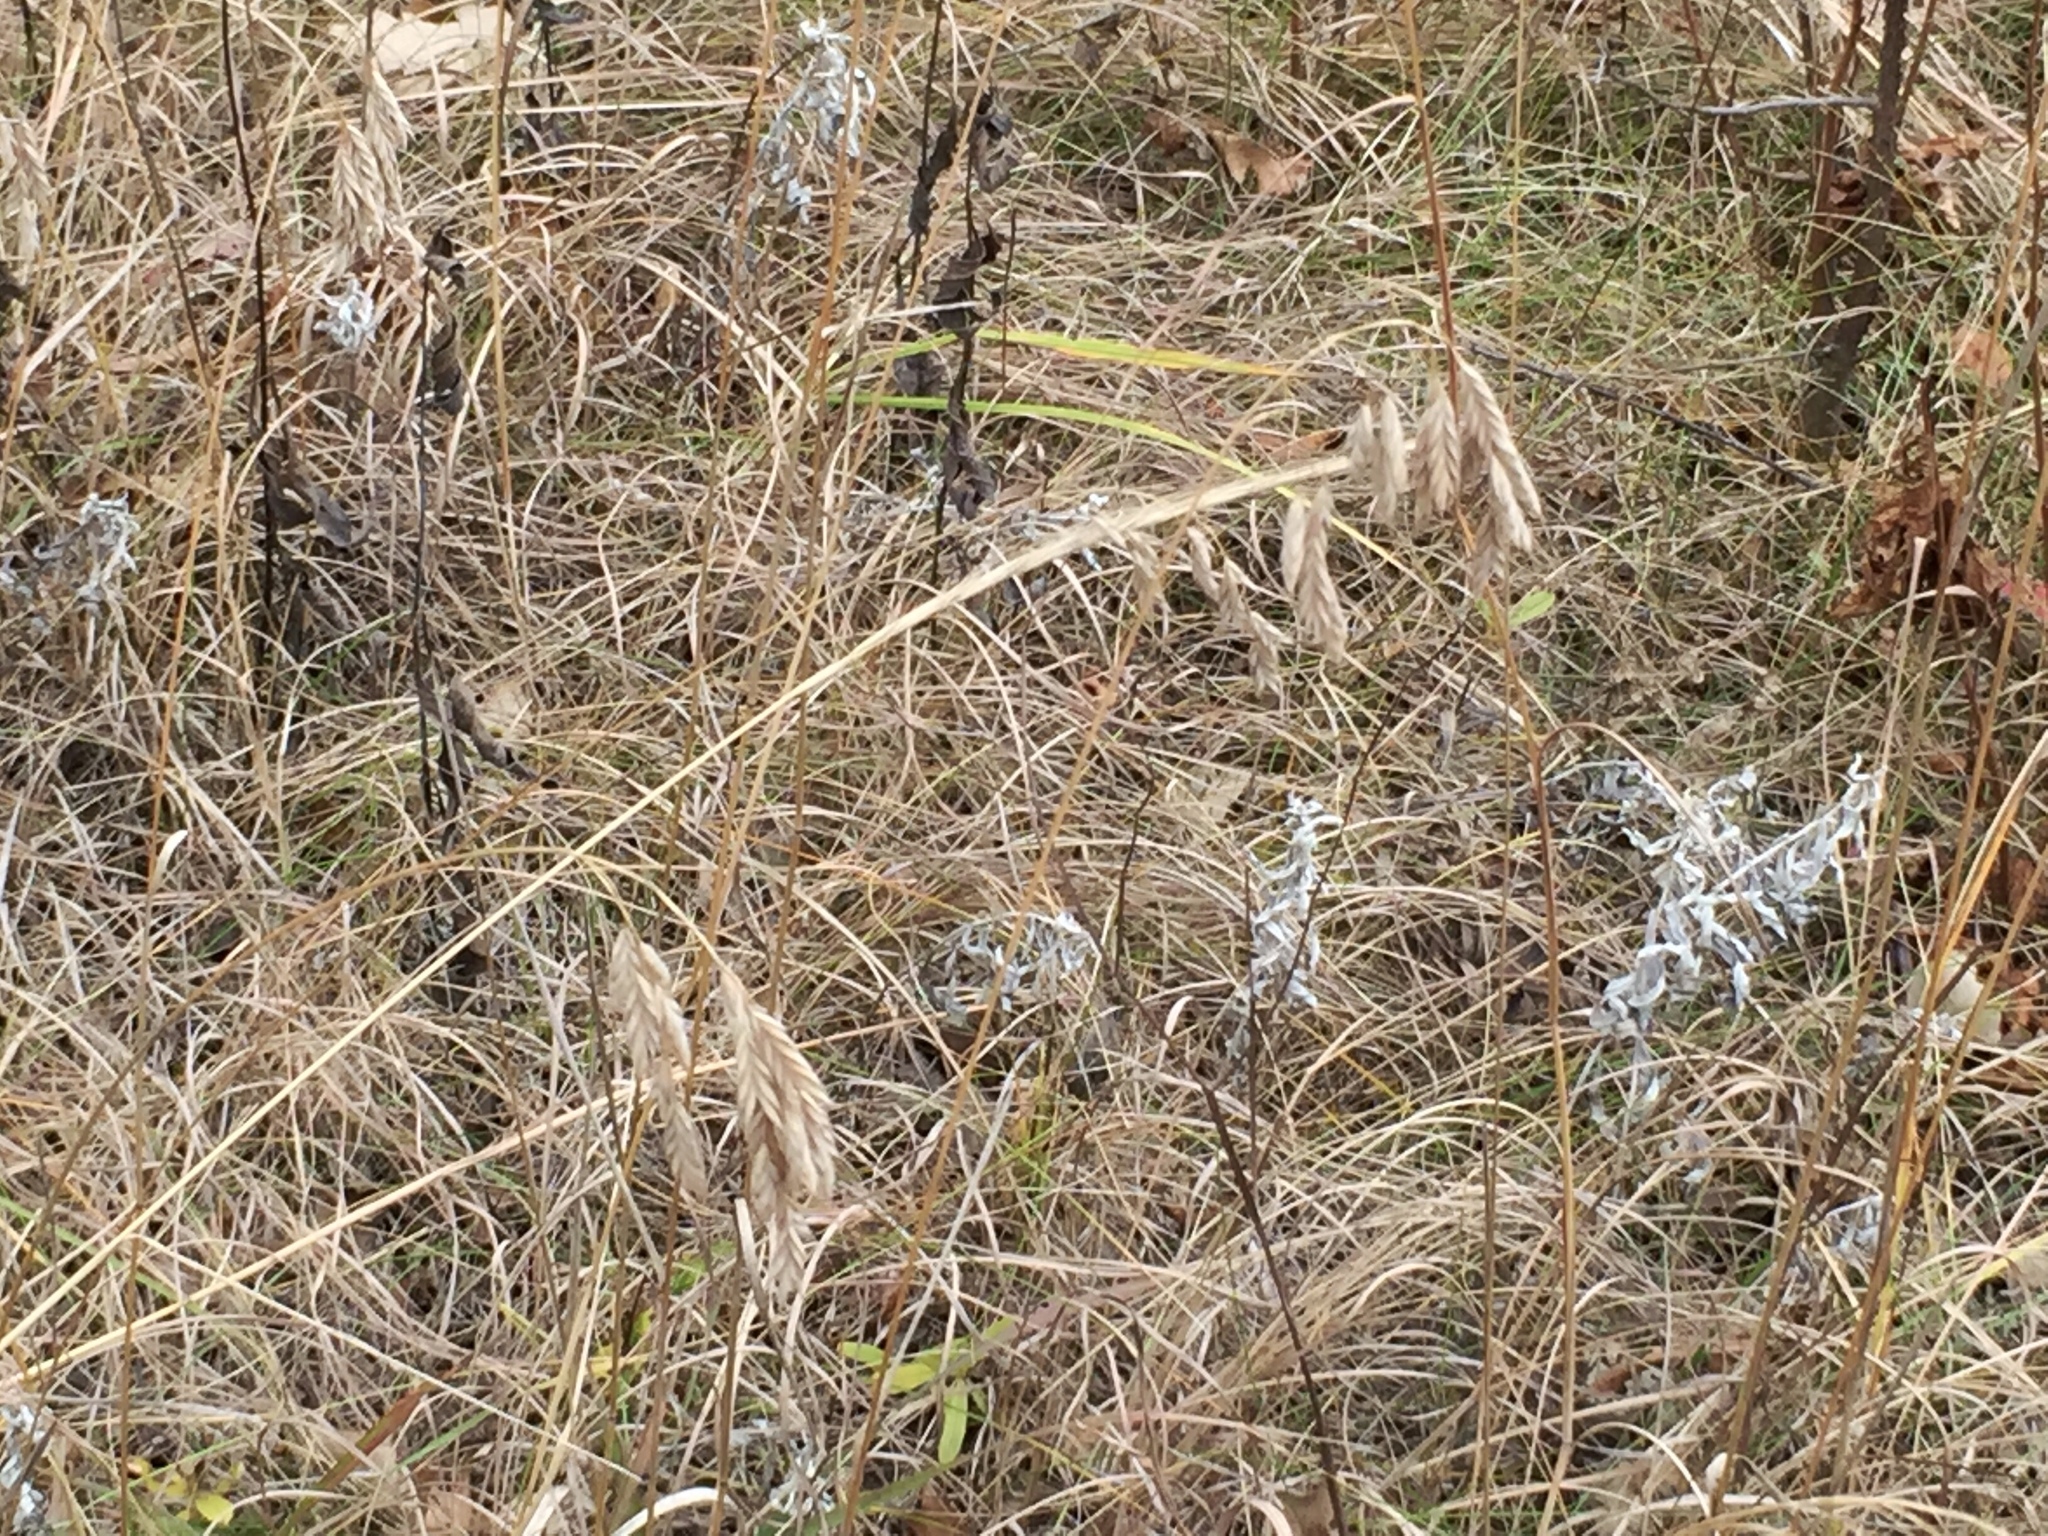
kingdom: Plantae
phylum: Tracheophyta
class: Liliopsida
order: Poales
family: Poaceae
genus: Bromus
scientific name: Bromus kalmii
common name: Kalm brome
